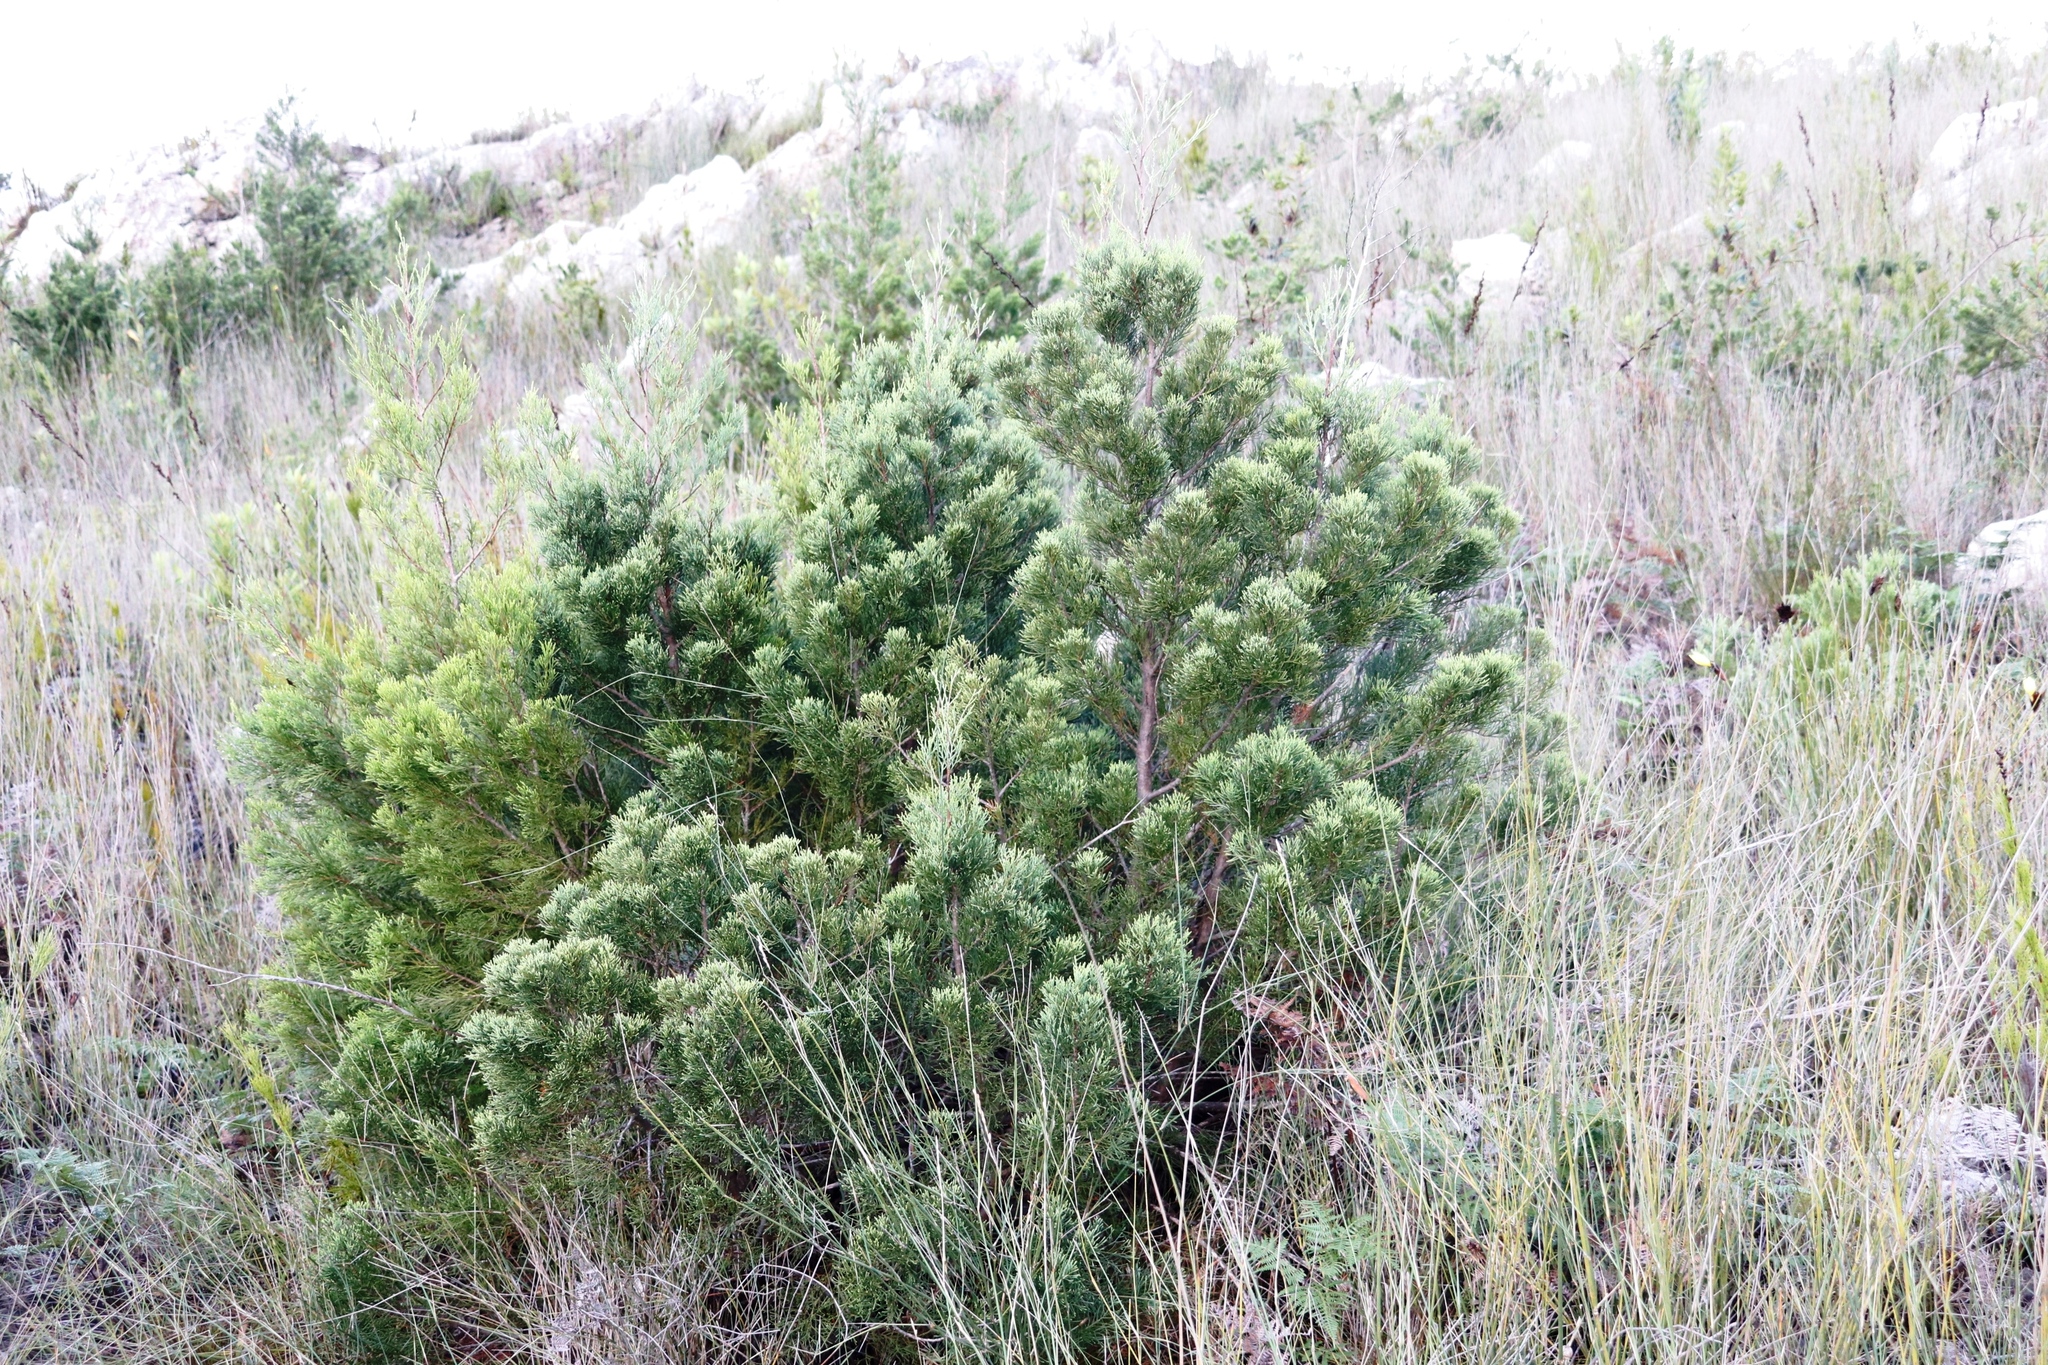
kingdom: Plantae
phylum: Tracheophyta
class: Pinopsida
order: Pinales
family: Cupressaceae
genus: Widdringtonia
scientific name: Widdringtonia nodiflora
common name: Cape cypress
